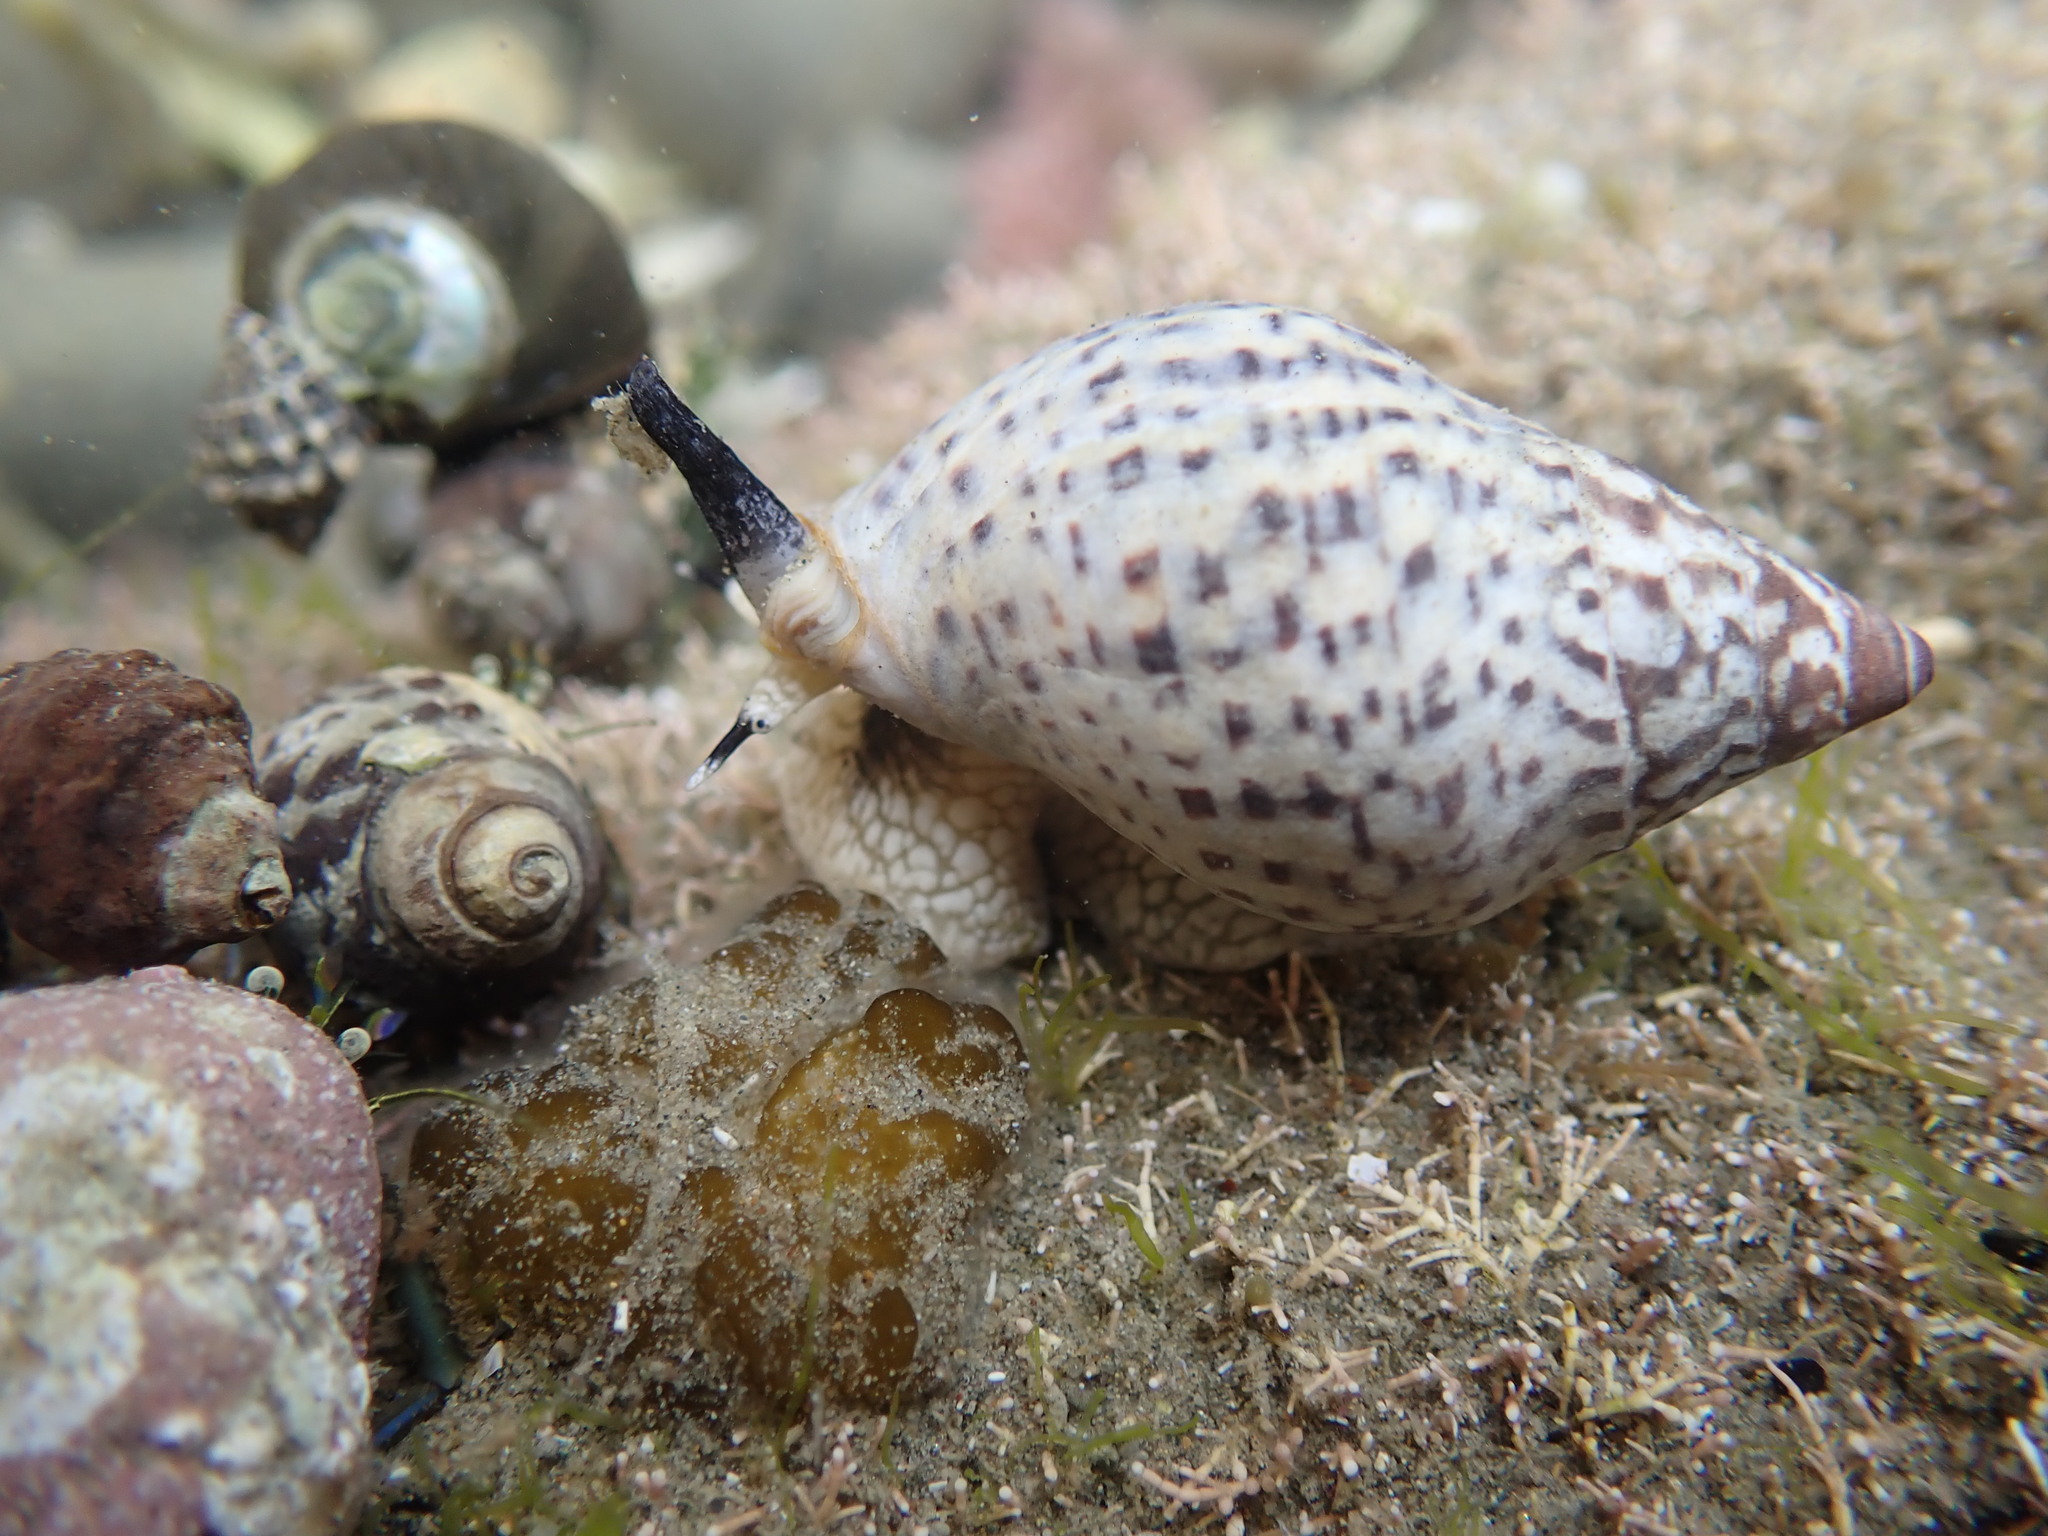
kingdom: Animalia
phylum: Mollusca
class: Gastropoda
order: Neogastropoda
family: Cominellidae
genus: Cominella
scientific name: Cominella maculosa
